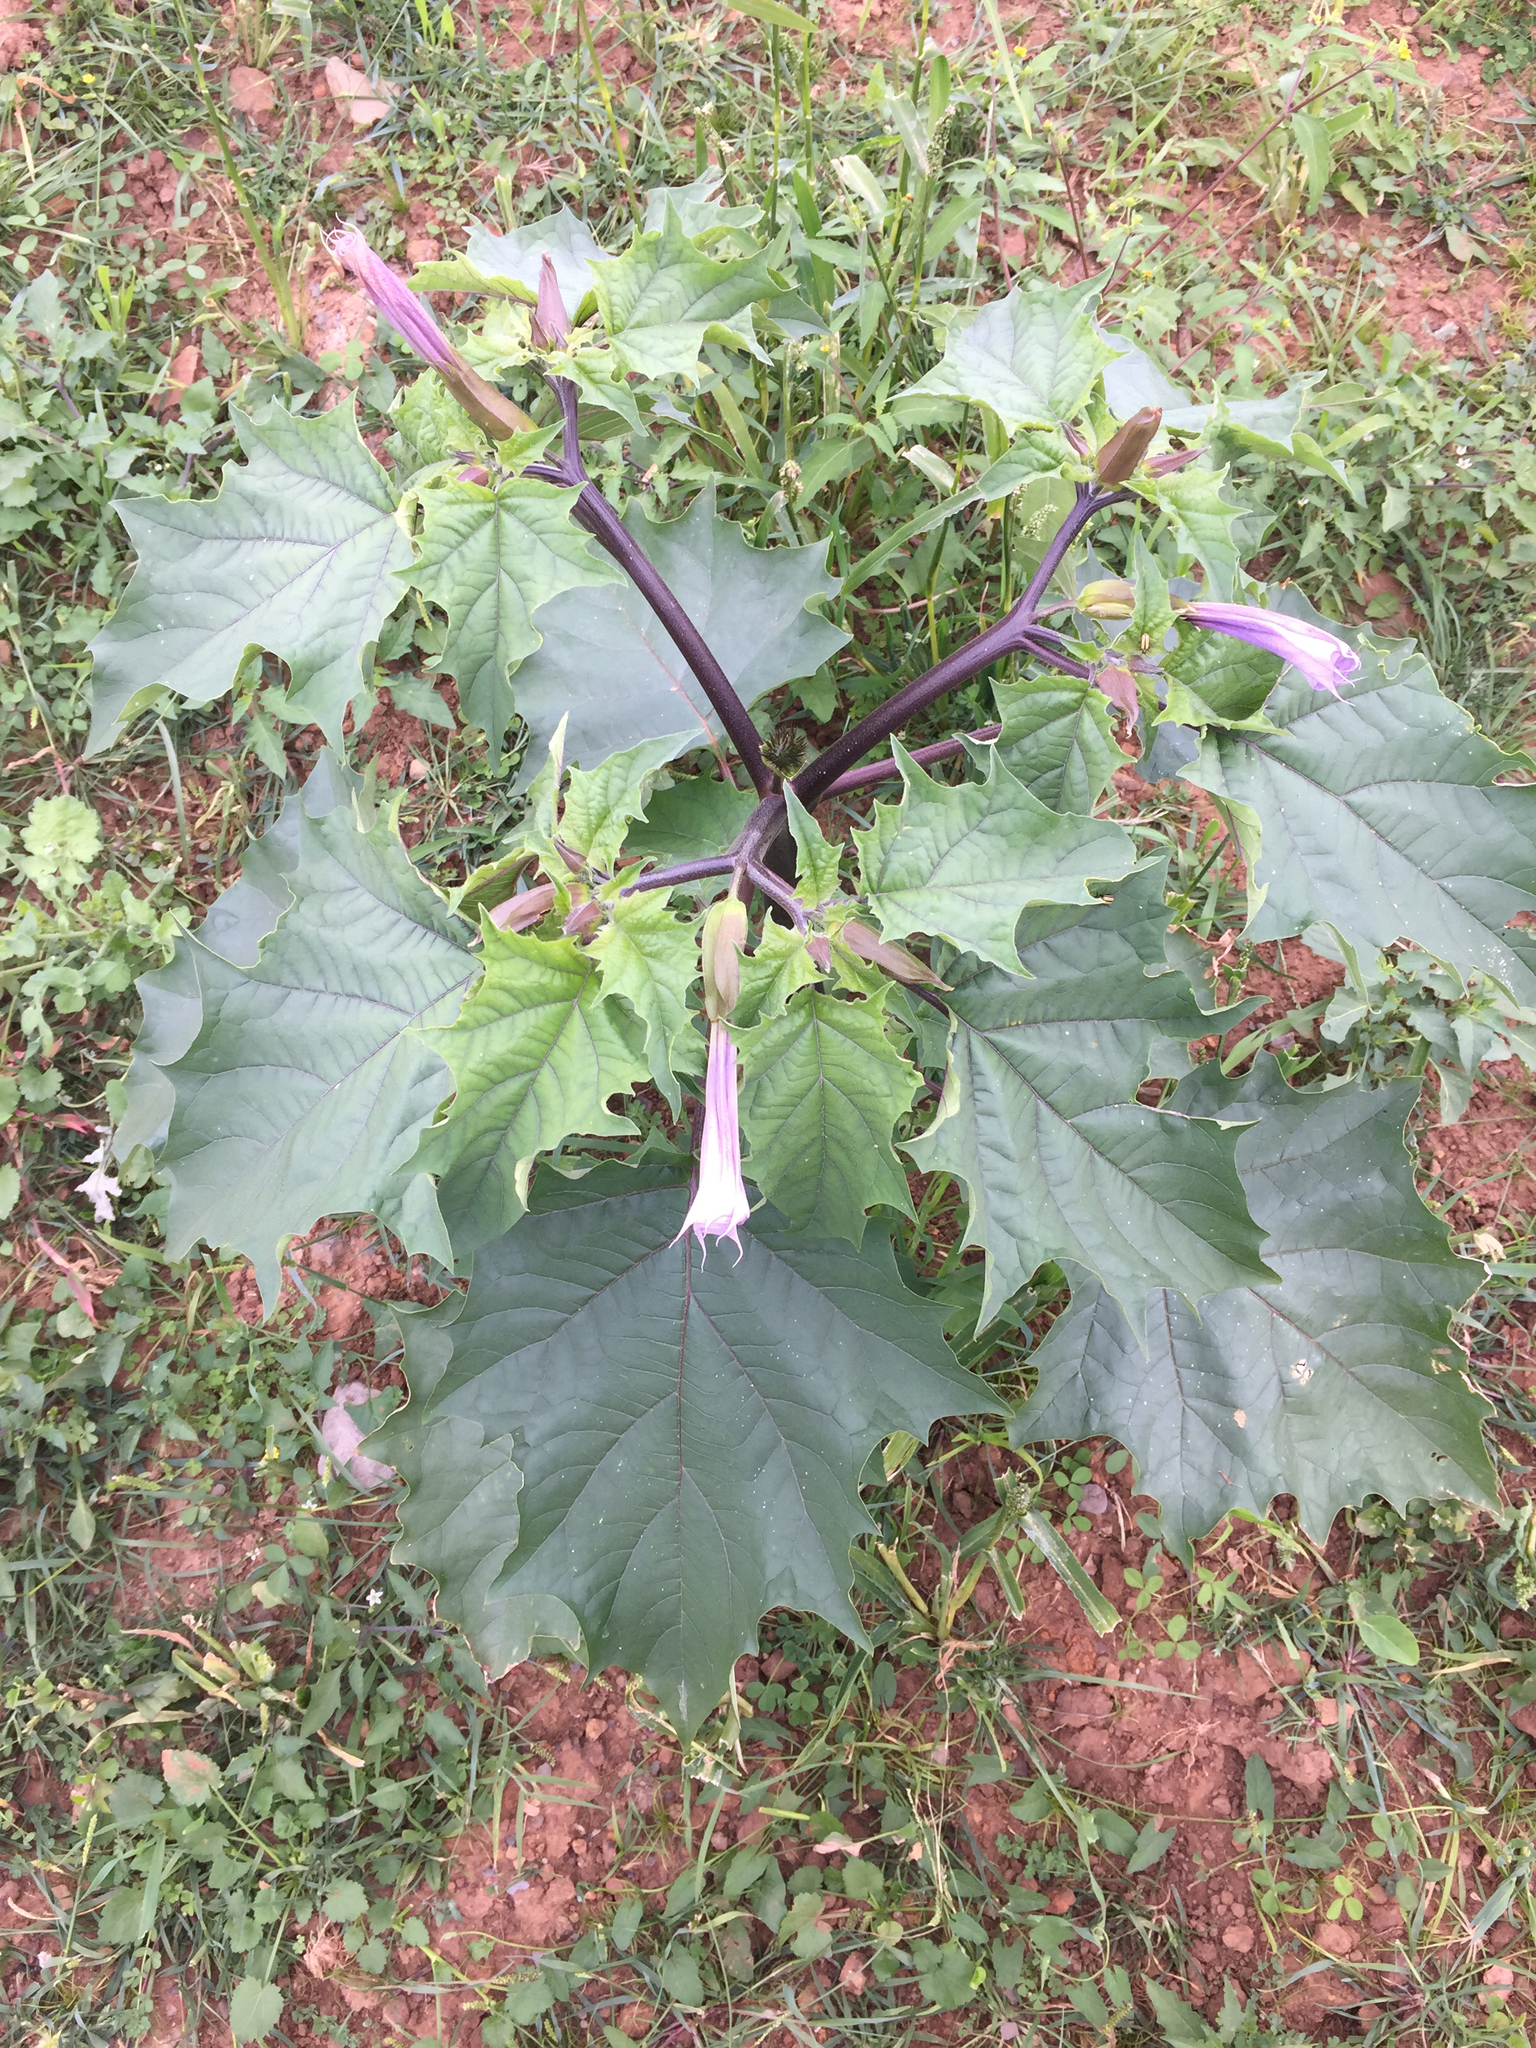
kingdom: Plantae
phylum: Tracheophyta
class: Magnoliopsida
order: Solanales
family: Solanaceae
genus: Datura
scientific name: Datura stramonium
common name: Thorn-apple
